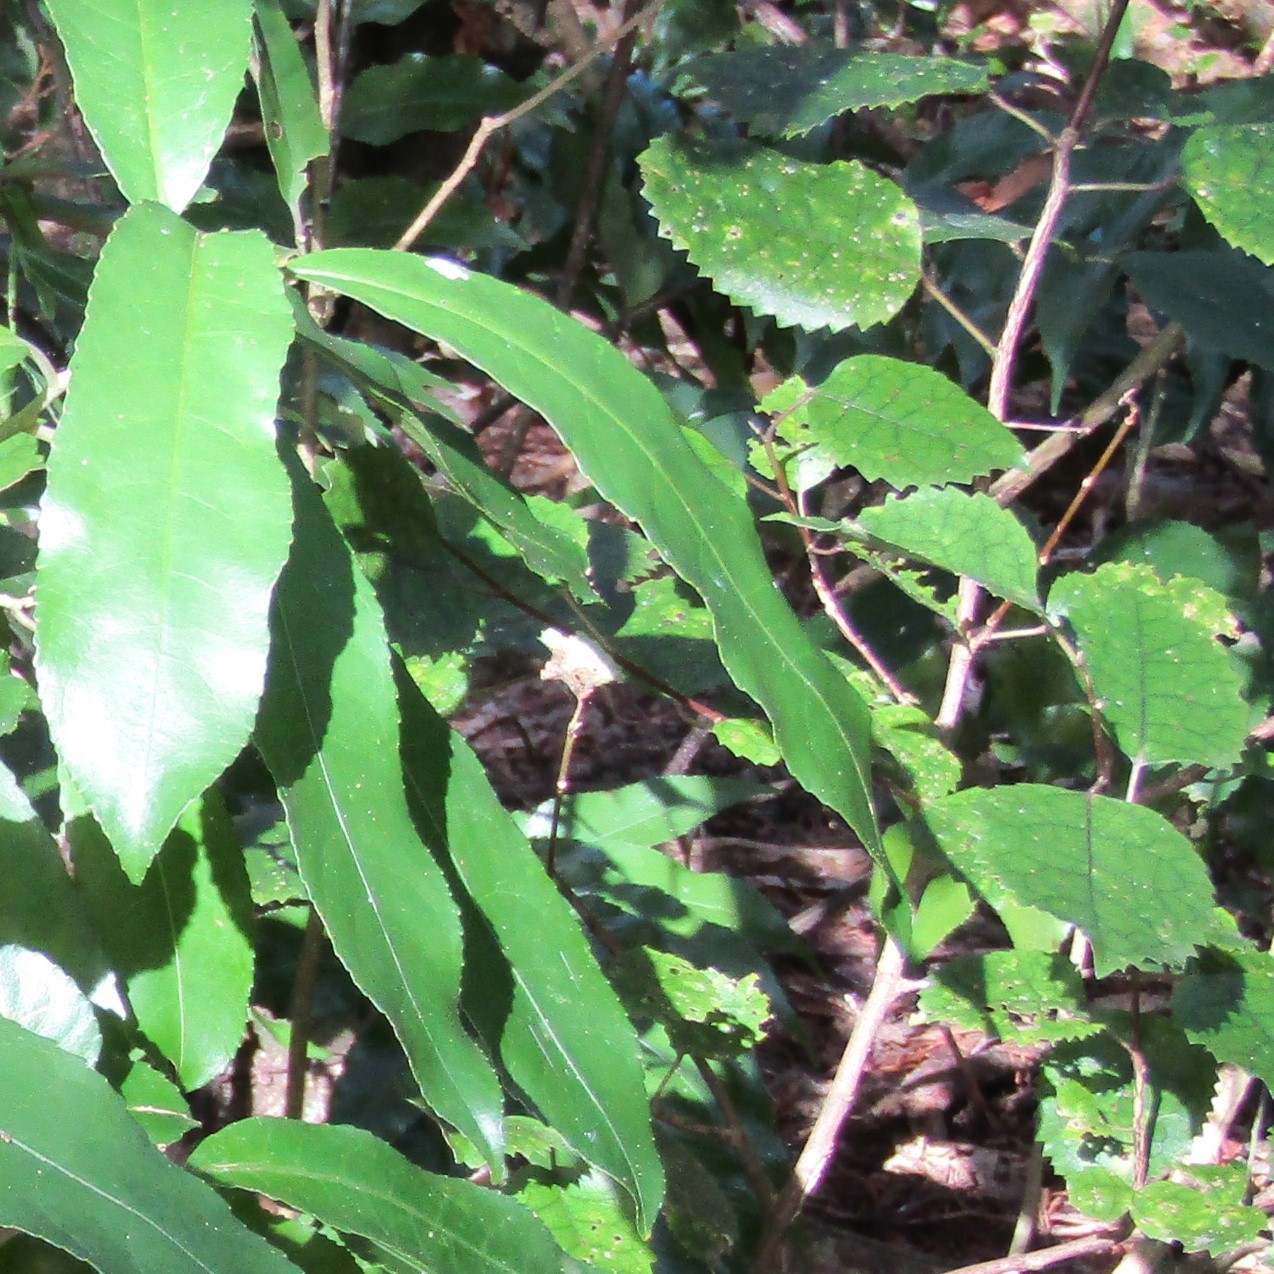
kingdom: Plantae
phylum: Tracheophyta
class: Magnoliopsida
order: Malvales
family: Malvaceae
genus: Hoheria
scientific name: Hoheria populnea
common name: Lacebark
